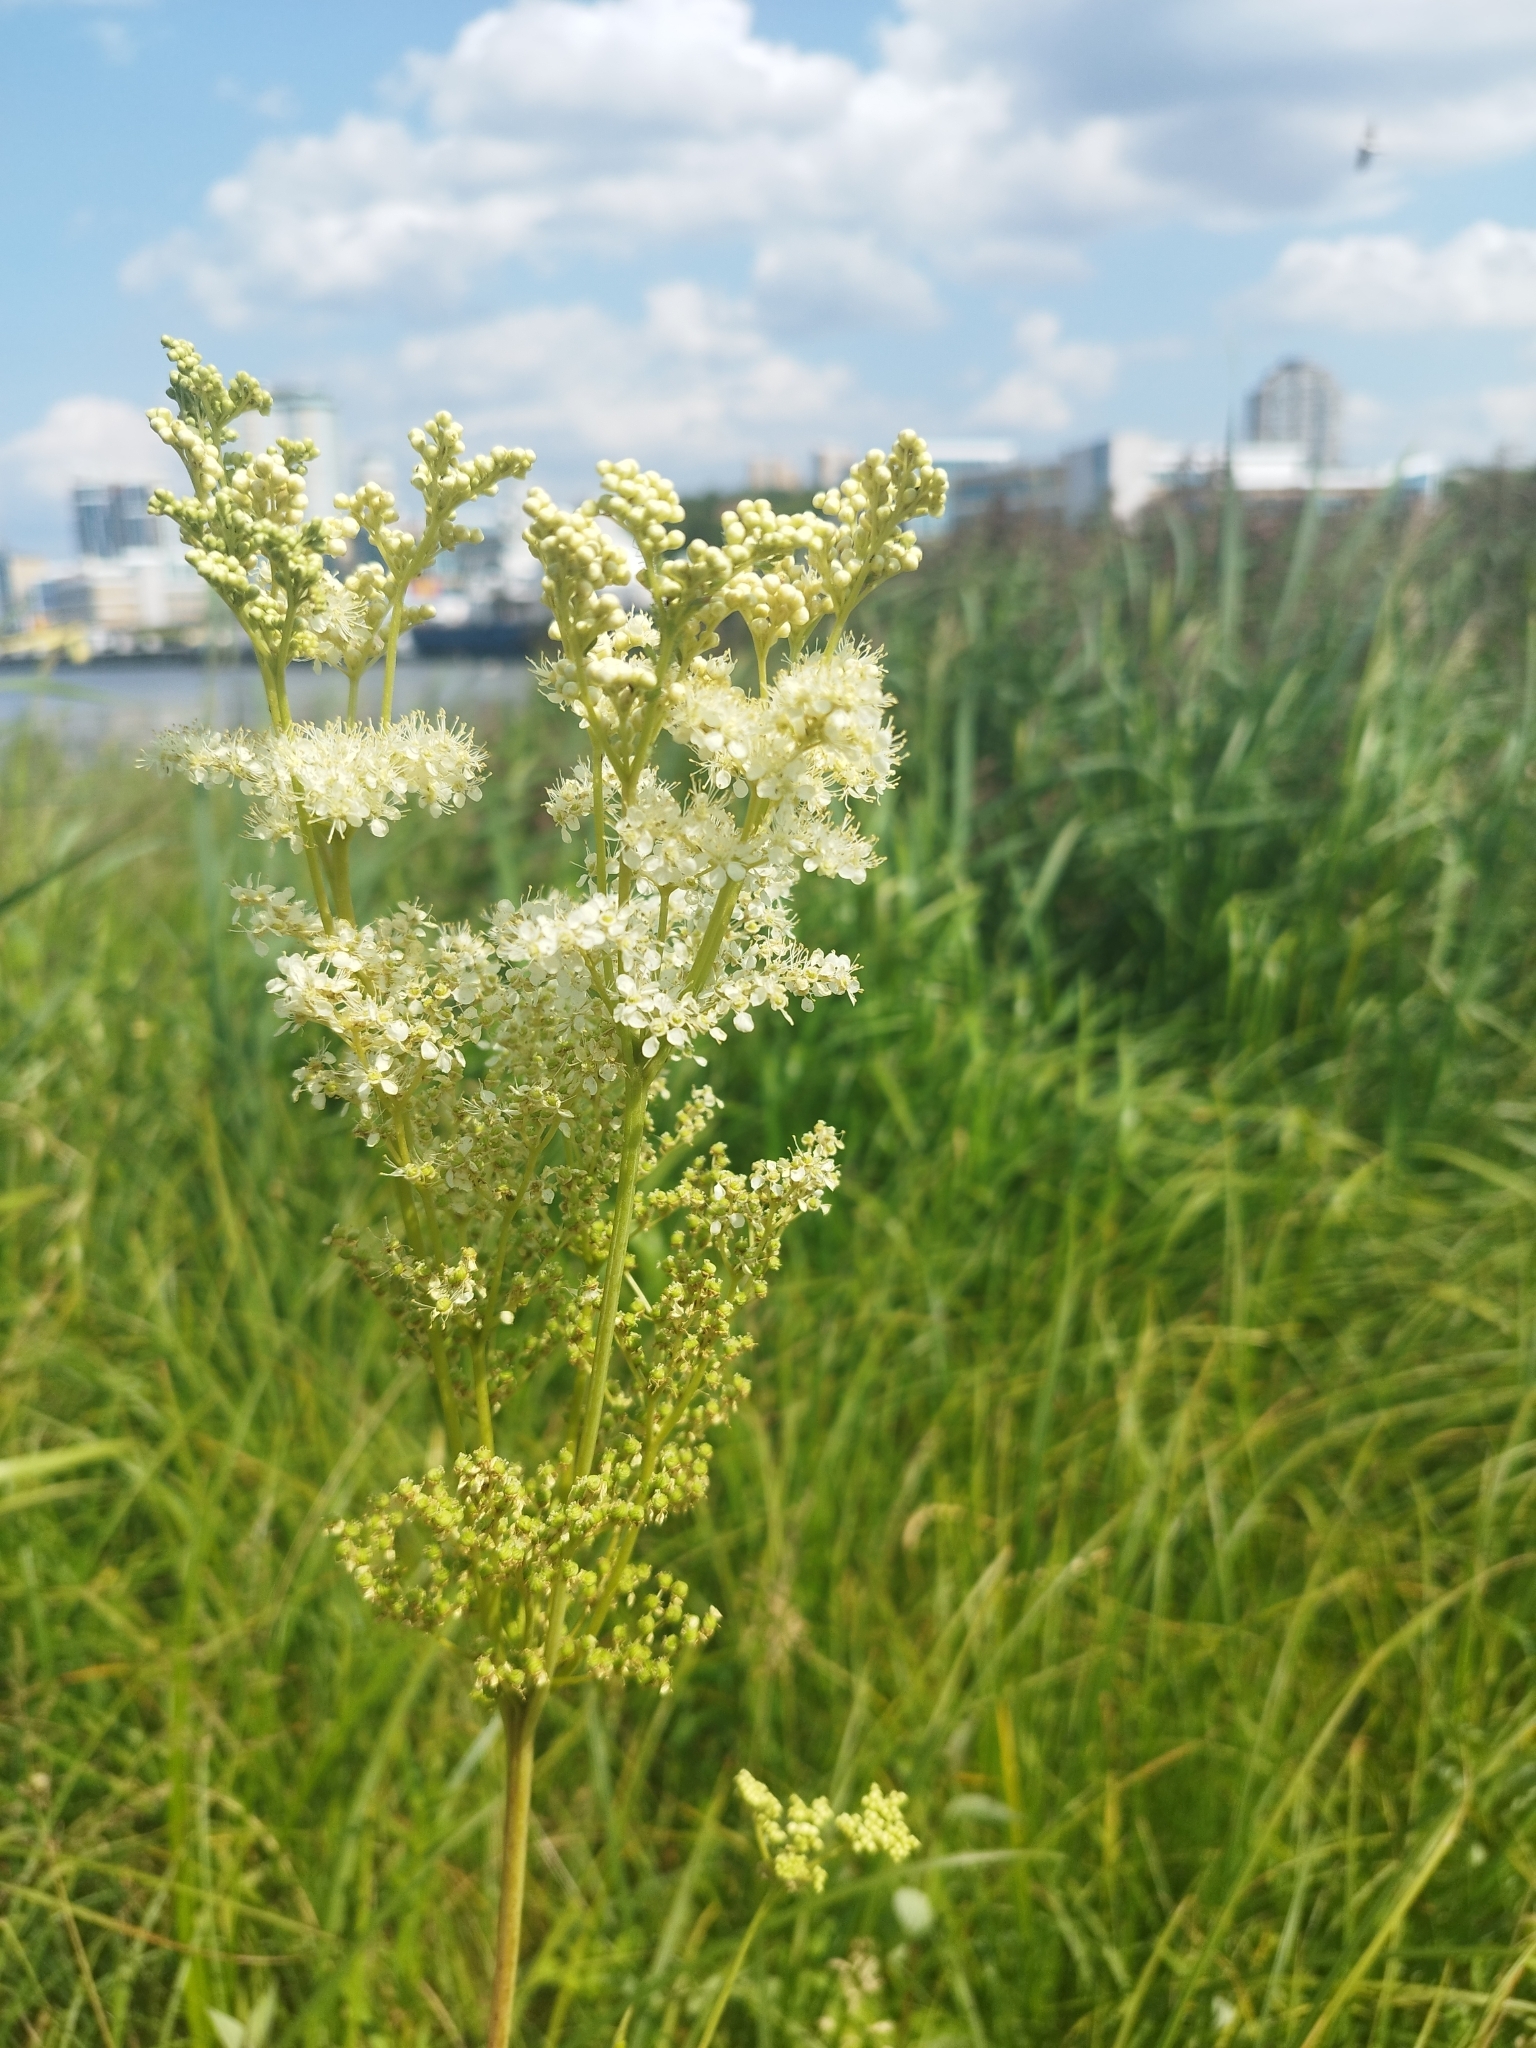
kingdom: Plantae
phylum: Tracheophyta
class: Magnoliopsida
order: Rosales
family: Rosaceae
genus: Filipendula
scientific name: Filipendula ulmaria
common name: Meadowsweet
